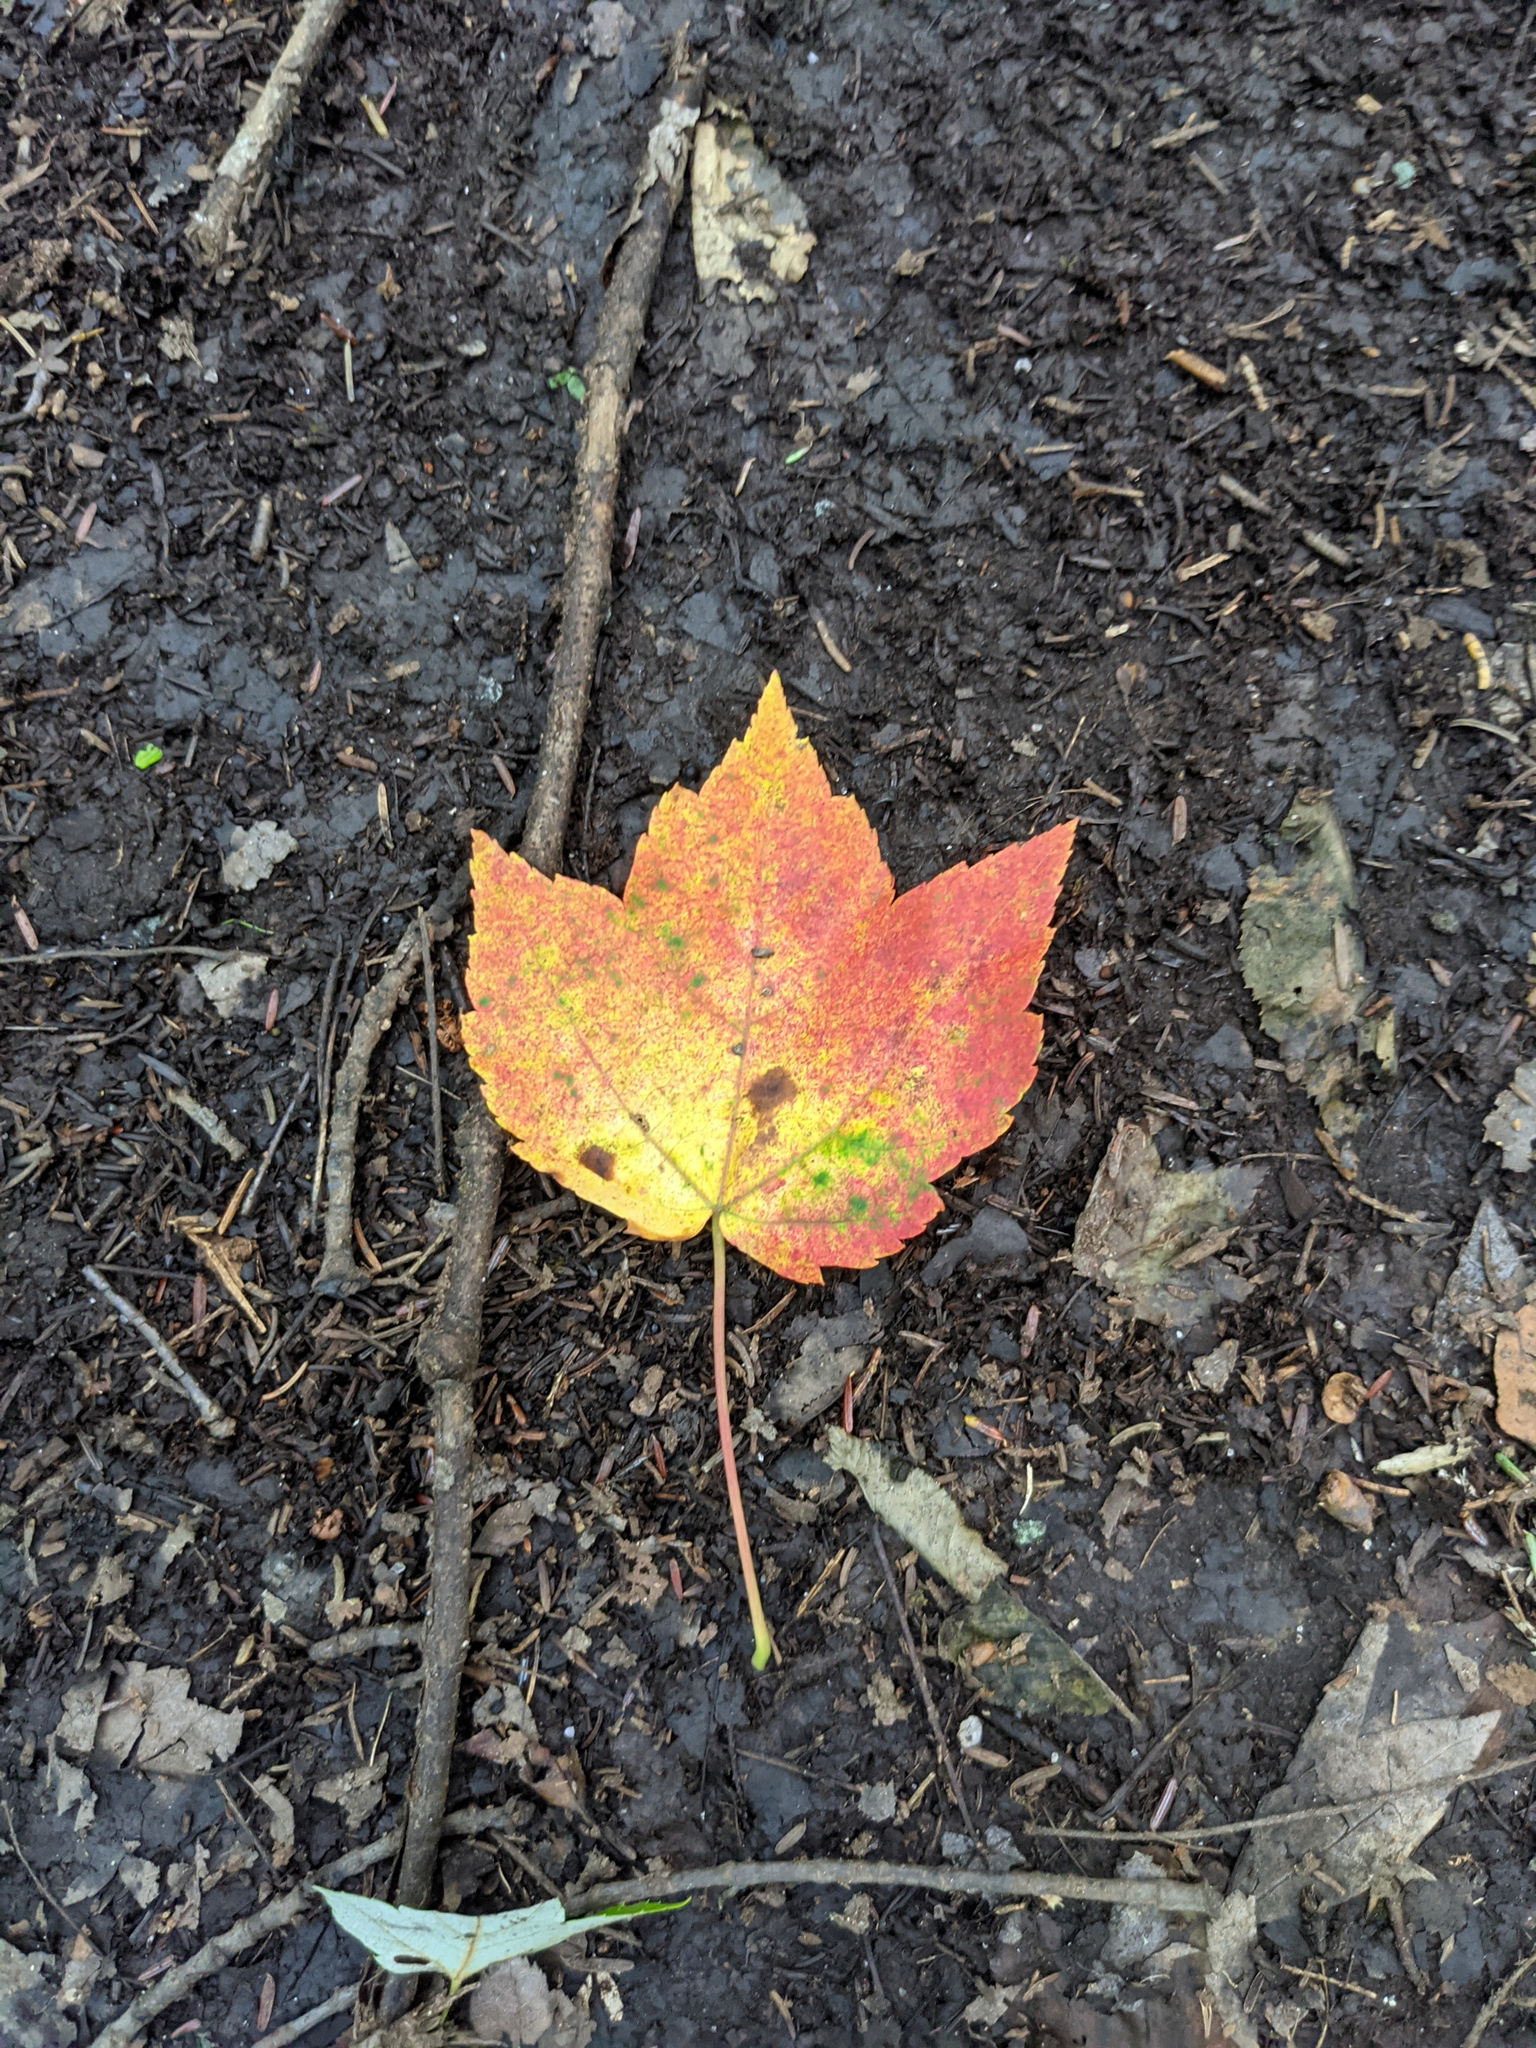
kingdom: Plantae
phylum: Tracheophyta
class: Magnoliopsida
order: Sapindales
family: Sapindaceae
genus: Acer
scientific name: Acer rubrum
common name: Red maple
